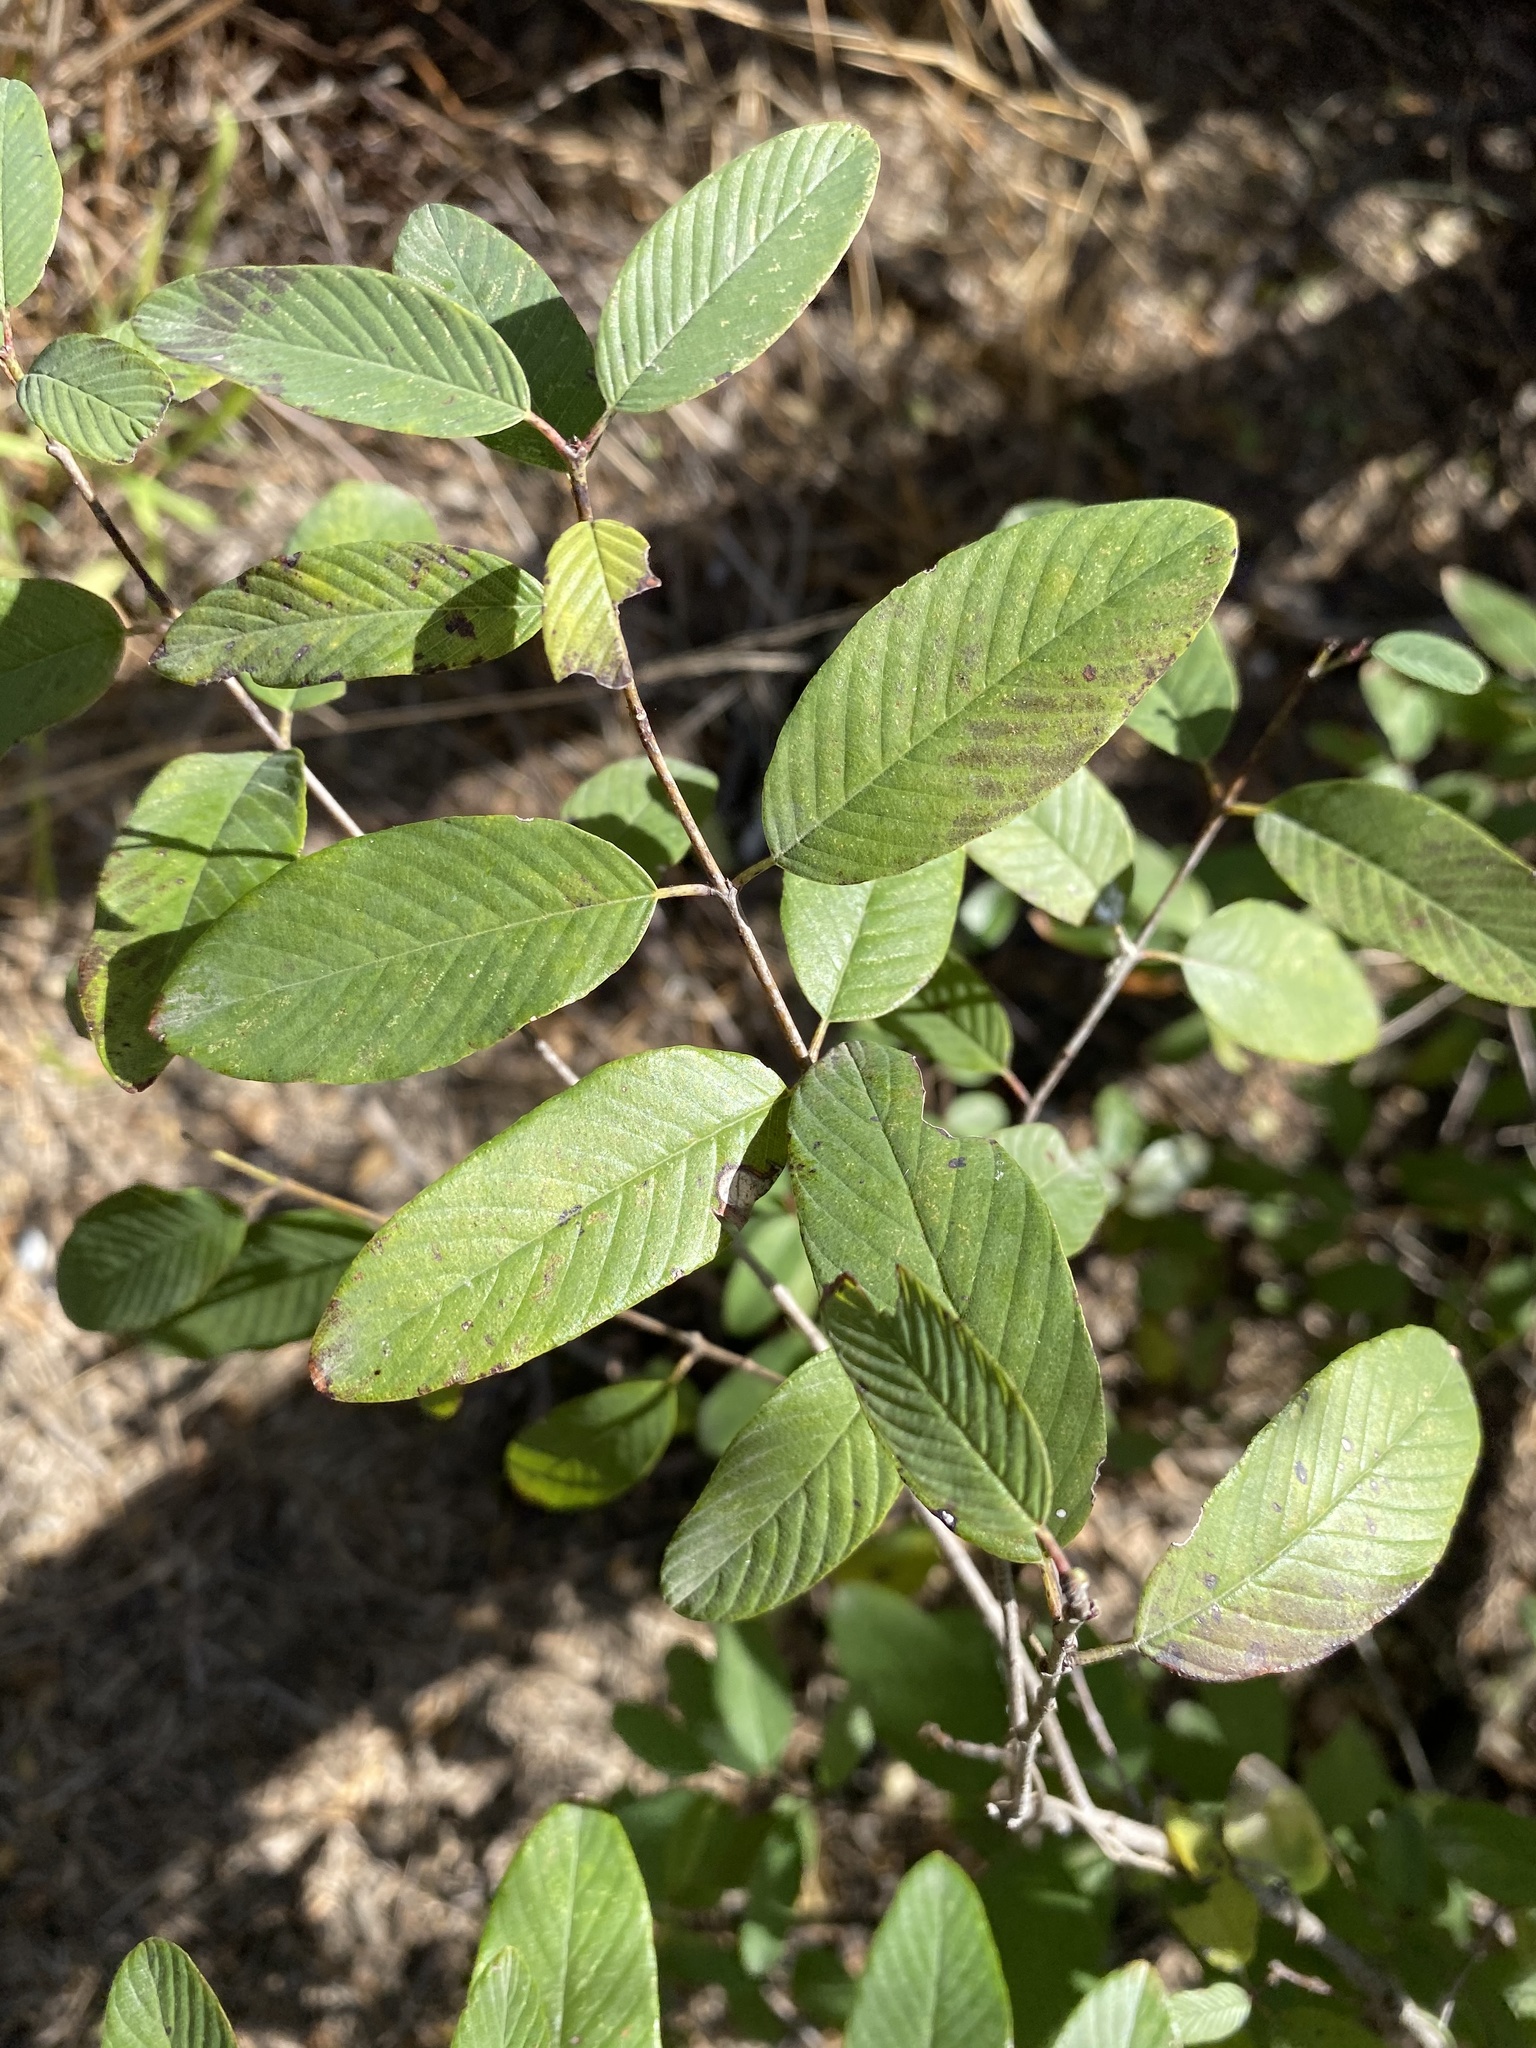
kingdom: Plantae
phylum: Tracheophyta
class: Magnoliopsida
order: Rosales
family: Rhamnaceae
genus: Karwinskia
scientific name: Karwinskia humboldtiana
